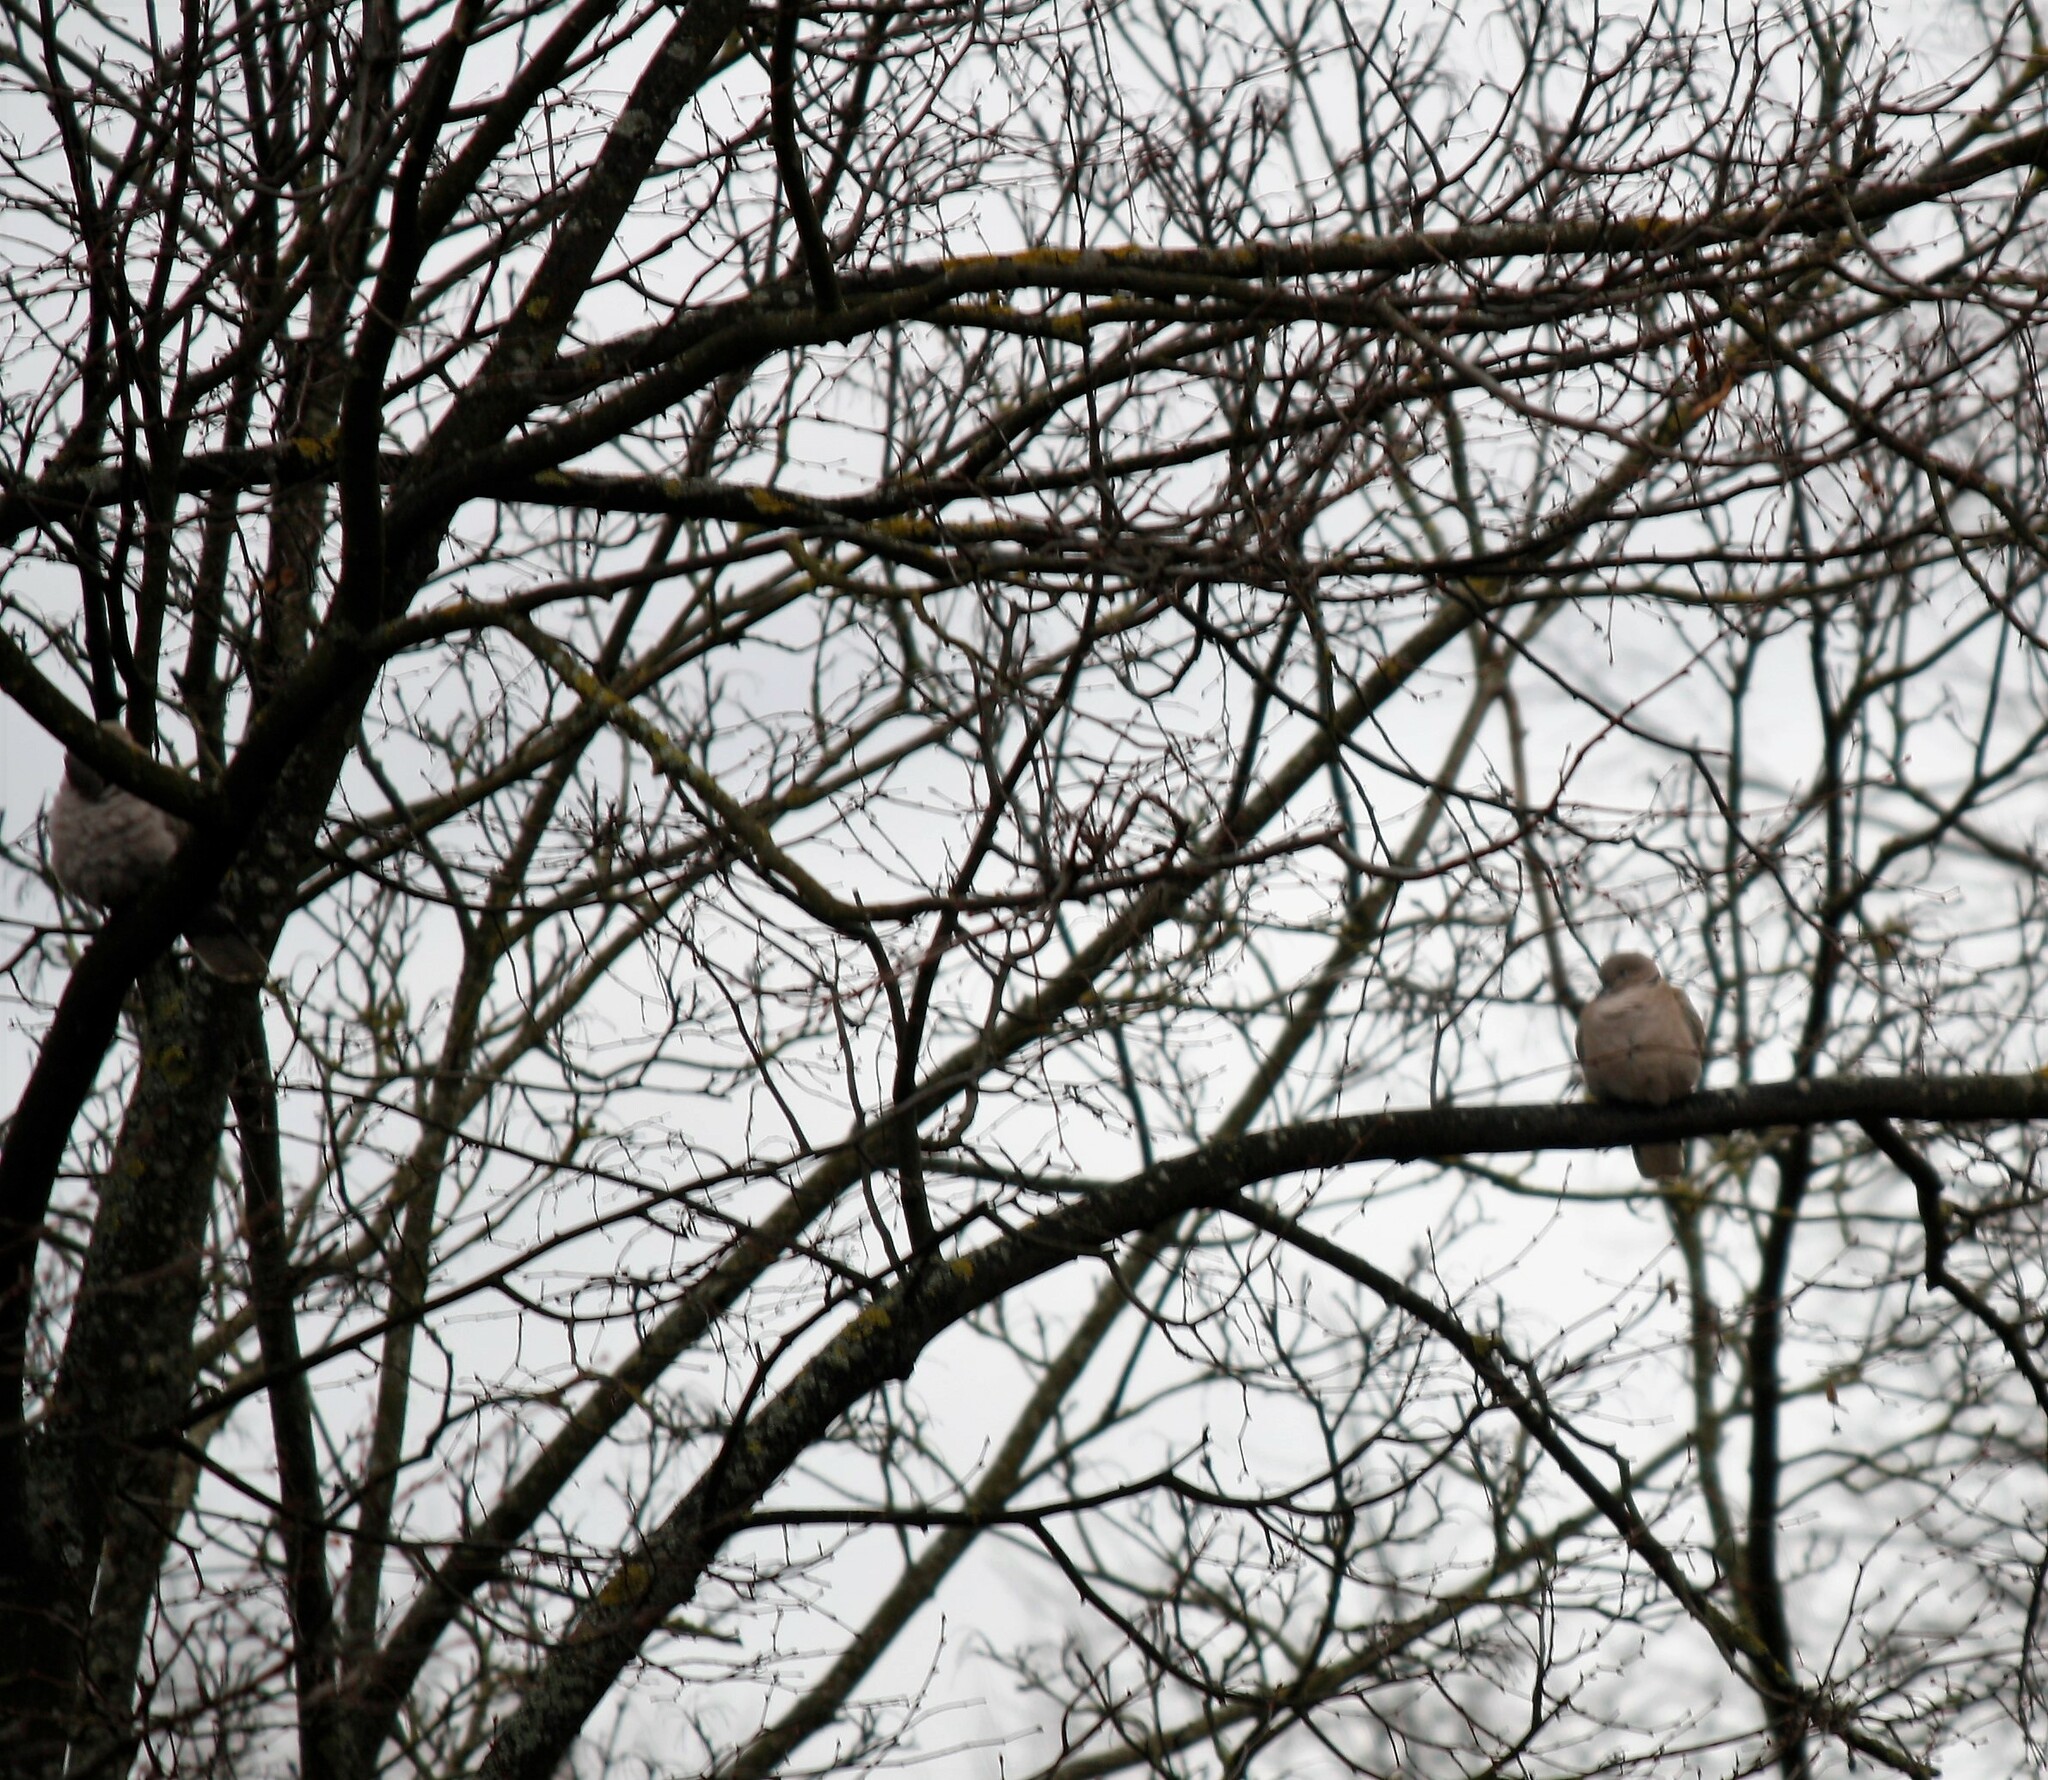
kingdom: Animalia
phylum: Chordata
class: Aves
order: Columbiformes
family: Columbidae
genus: Streptopelia
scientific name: Streptopelia decaocto
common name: Eurasian collared dove
